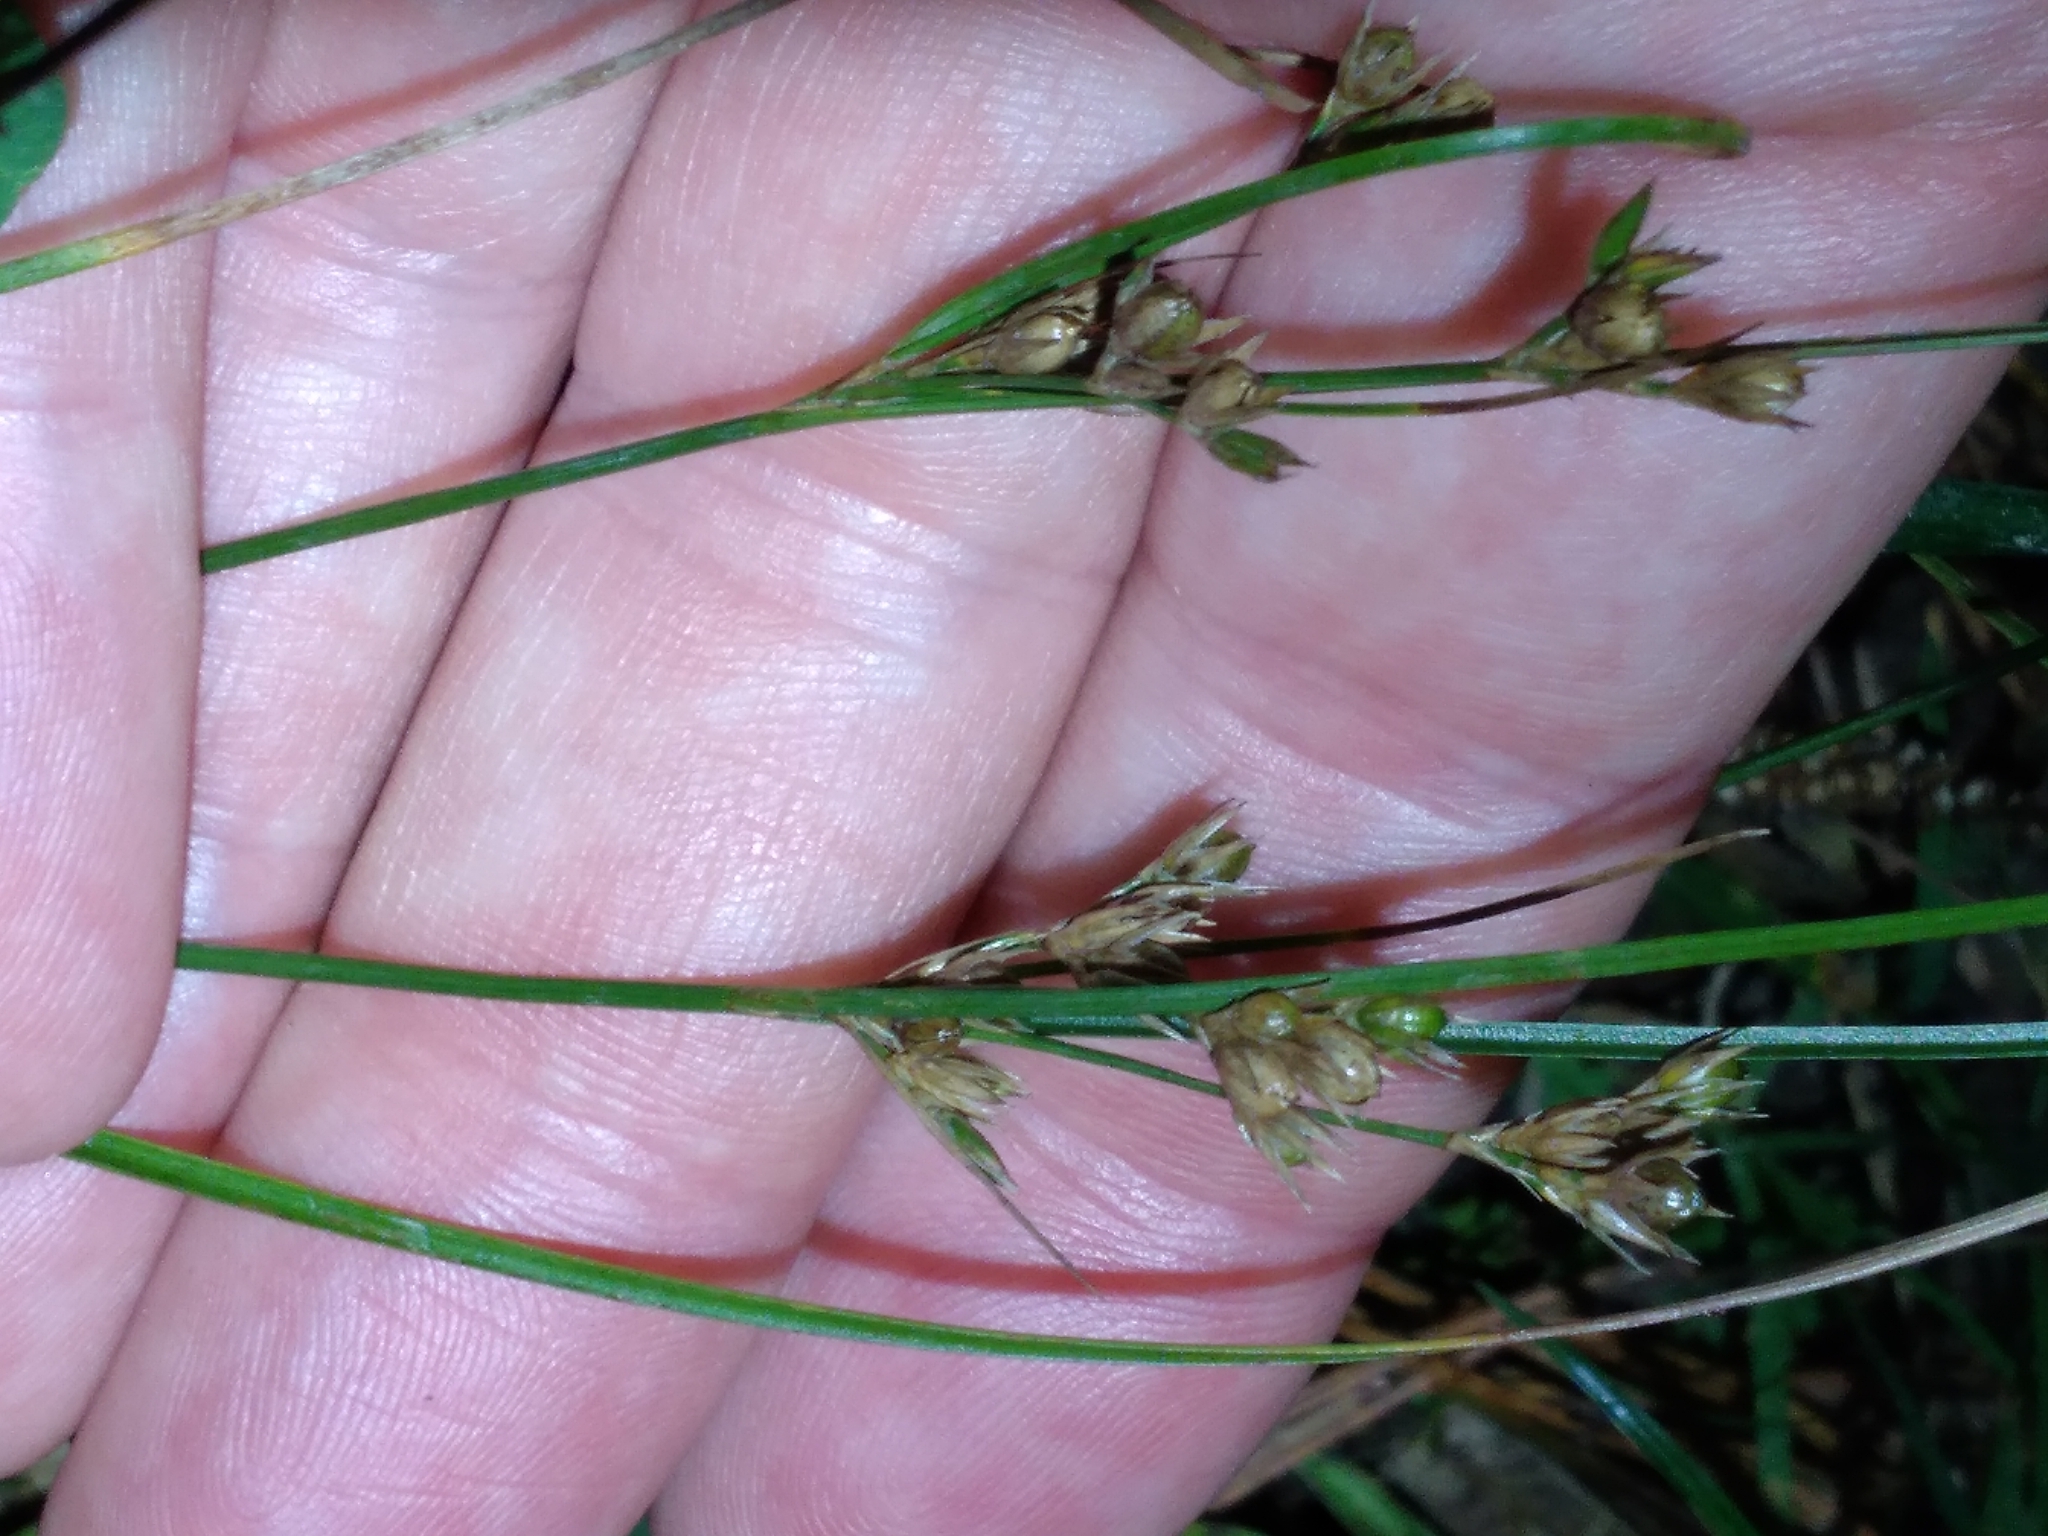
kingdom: Plantae
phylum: Tracheophyta
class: Liliopsida
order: Poales
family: Juncaceae
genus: Juncus
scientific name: Juncus tenuis
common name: Slender rush
